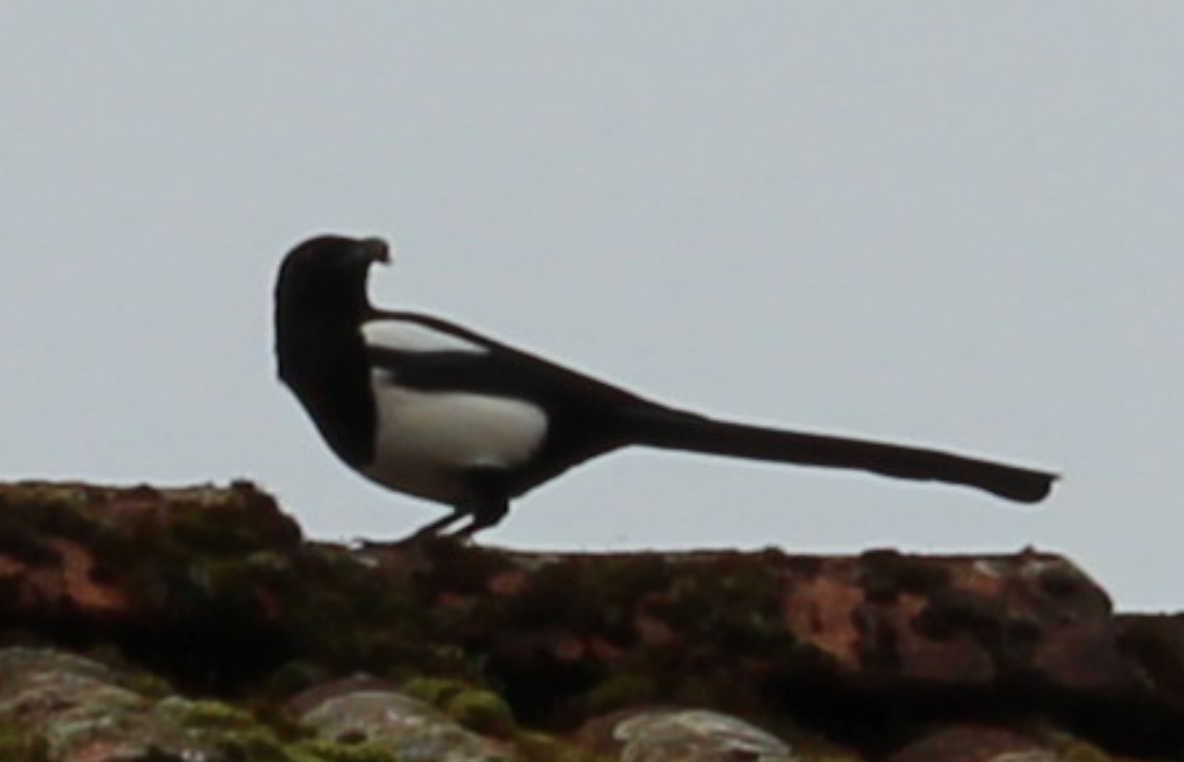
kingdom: Animalia
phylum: Chordata
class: Aves
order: Passeriformes
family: Corvidae
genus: Pica
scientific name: Pica pica
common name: Eurasian magpie
